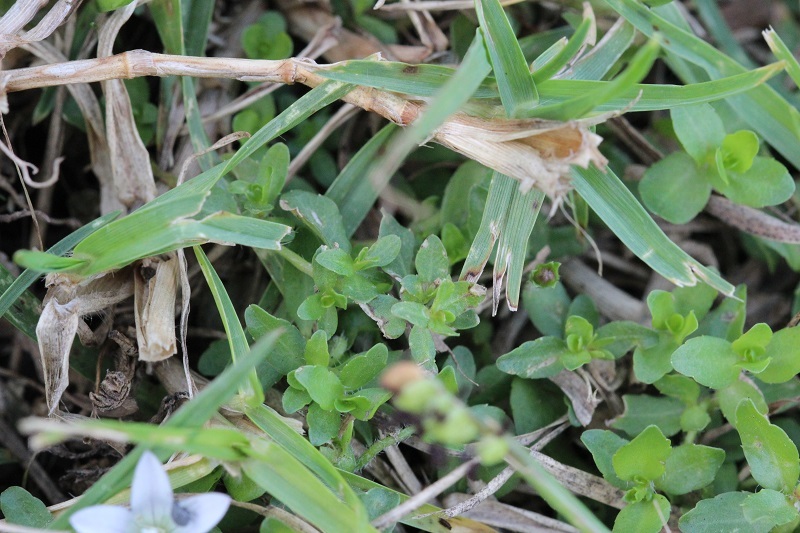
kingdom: Plantae
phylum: Tracheophyta
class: Magnoliopsida
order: Asterales
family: Campanulaceae
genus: Wahlenbergia
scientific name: Wahlenbergia procumbens
